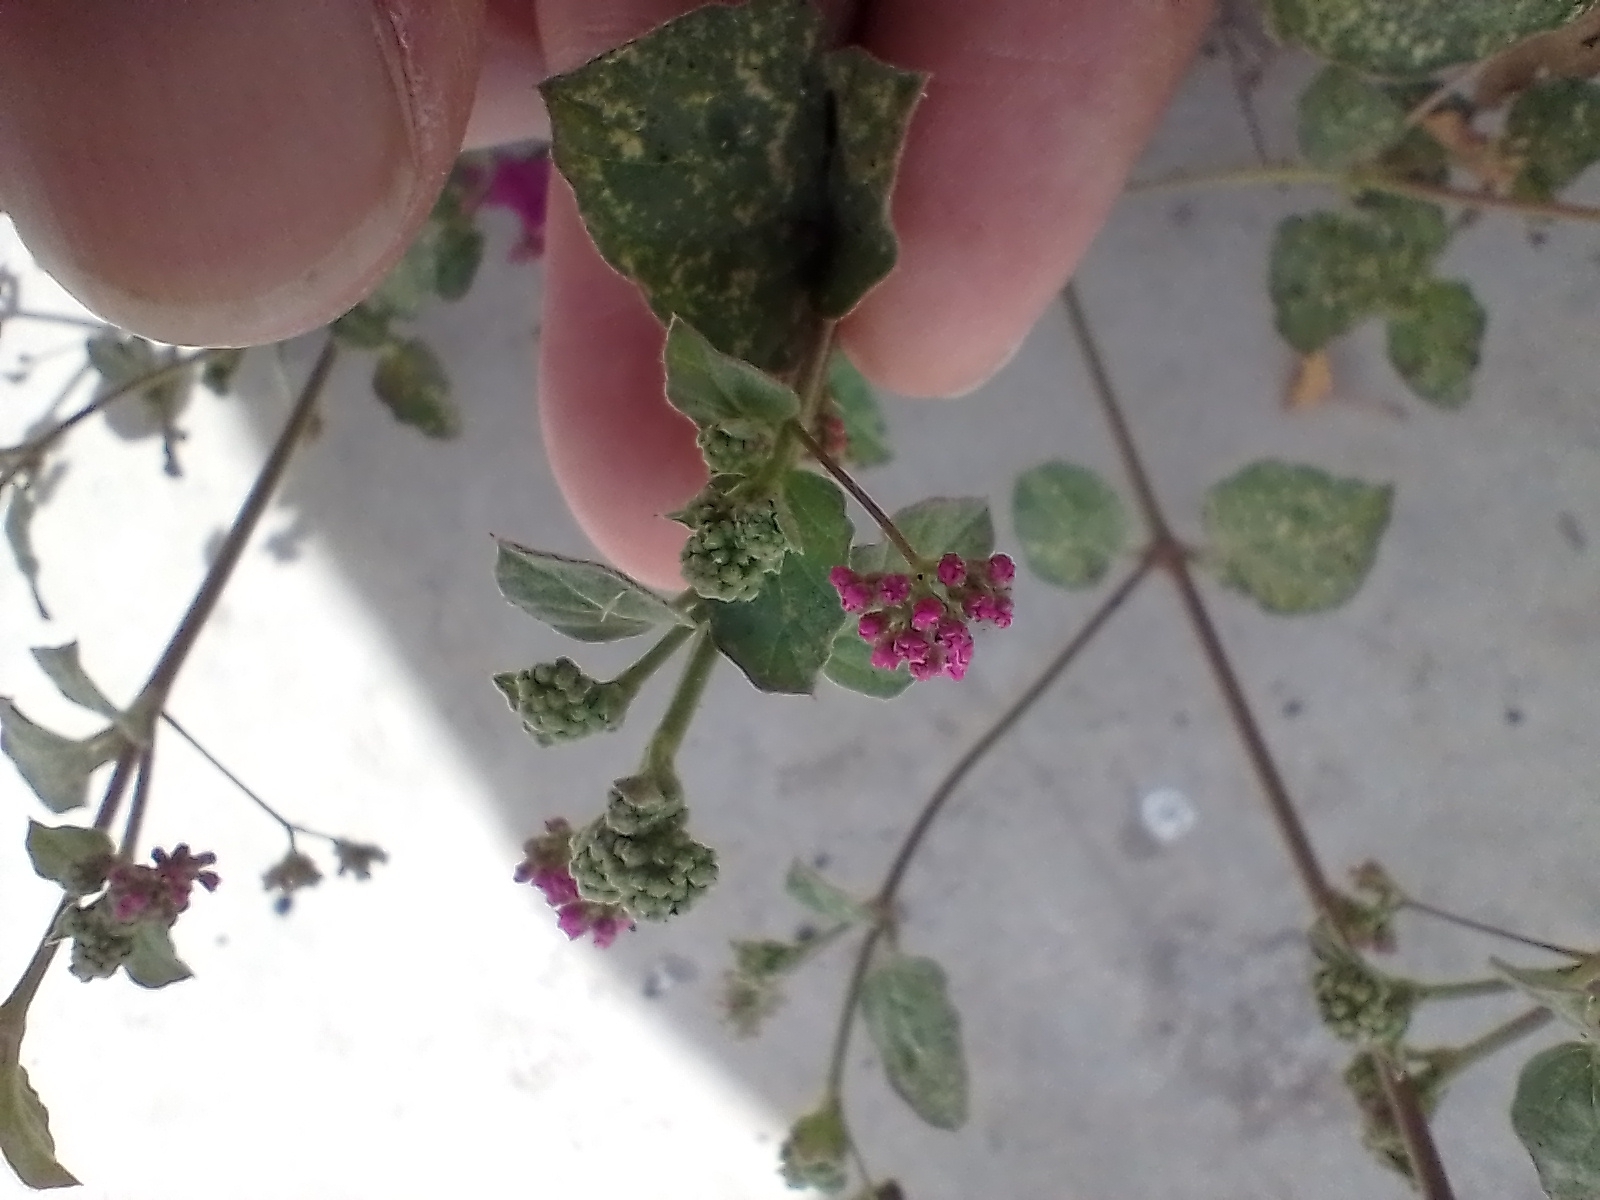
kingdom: Plantae
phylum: Tracheophyta
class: Magnoliopsida
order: Caryophyllales
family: Nyctaginaceae
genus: Boerhavia
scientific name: Boerhavia coccinea
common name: Scarlet spiderling
